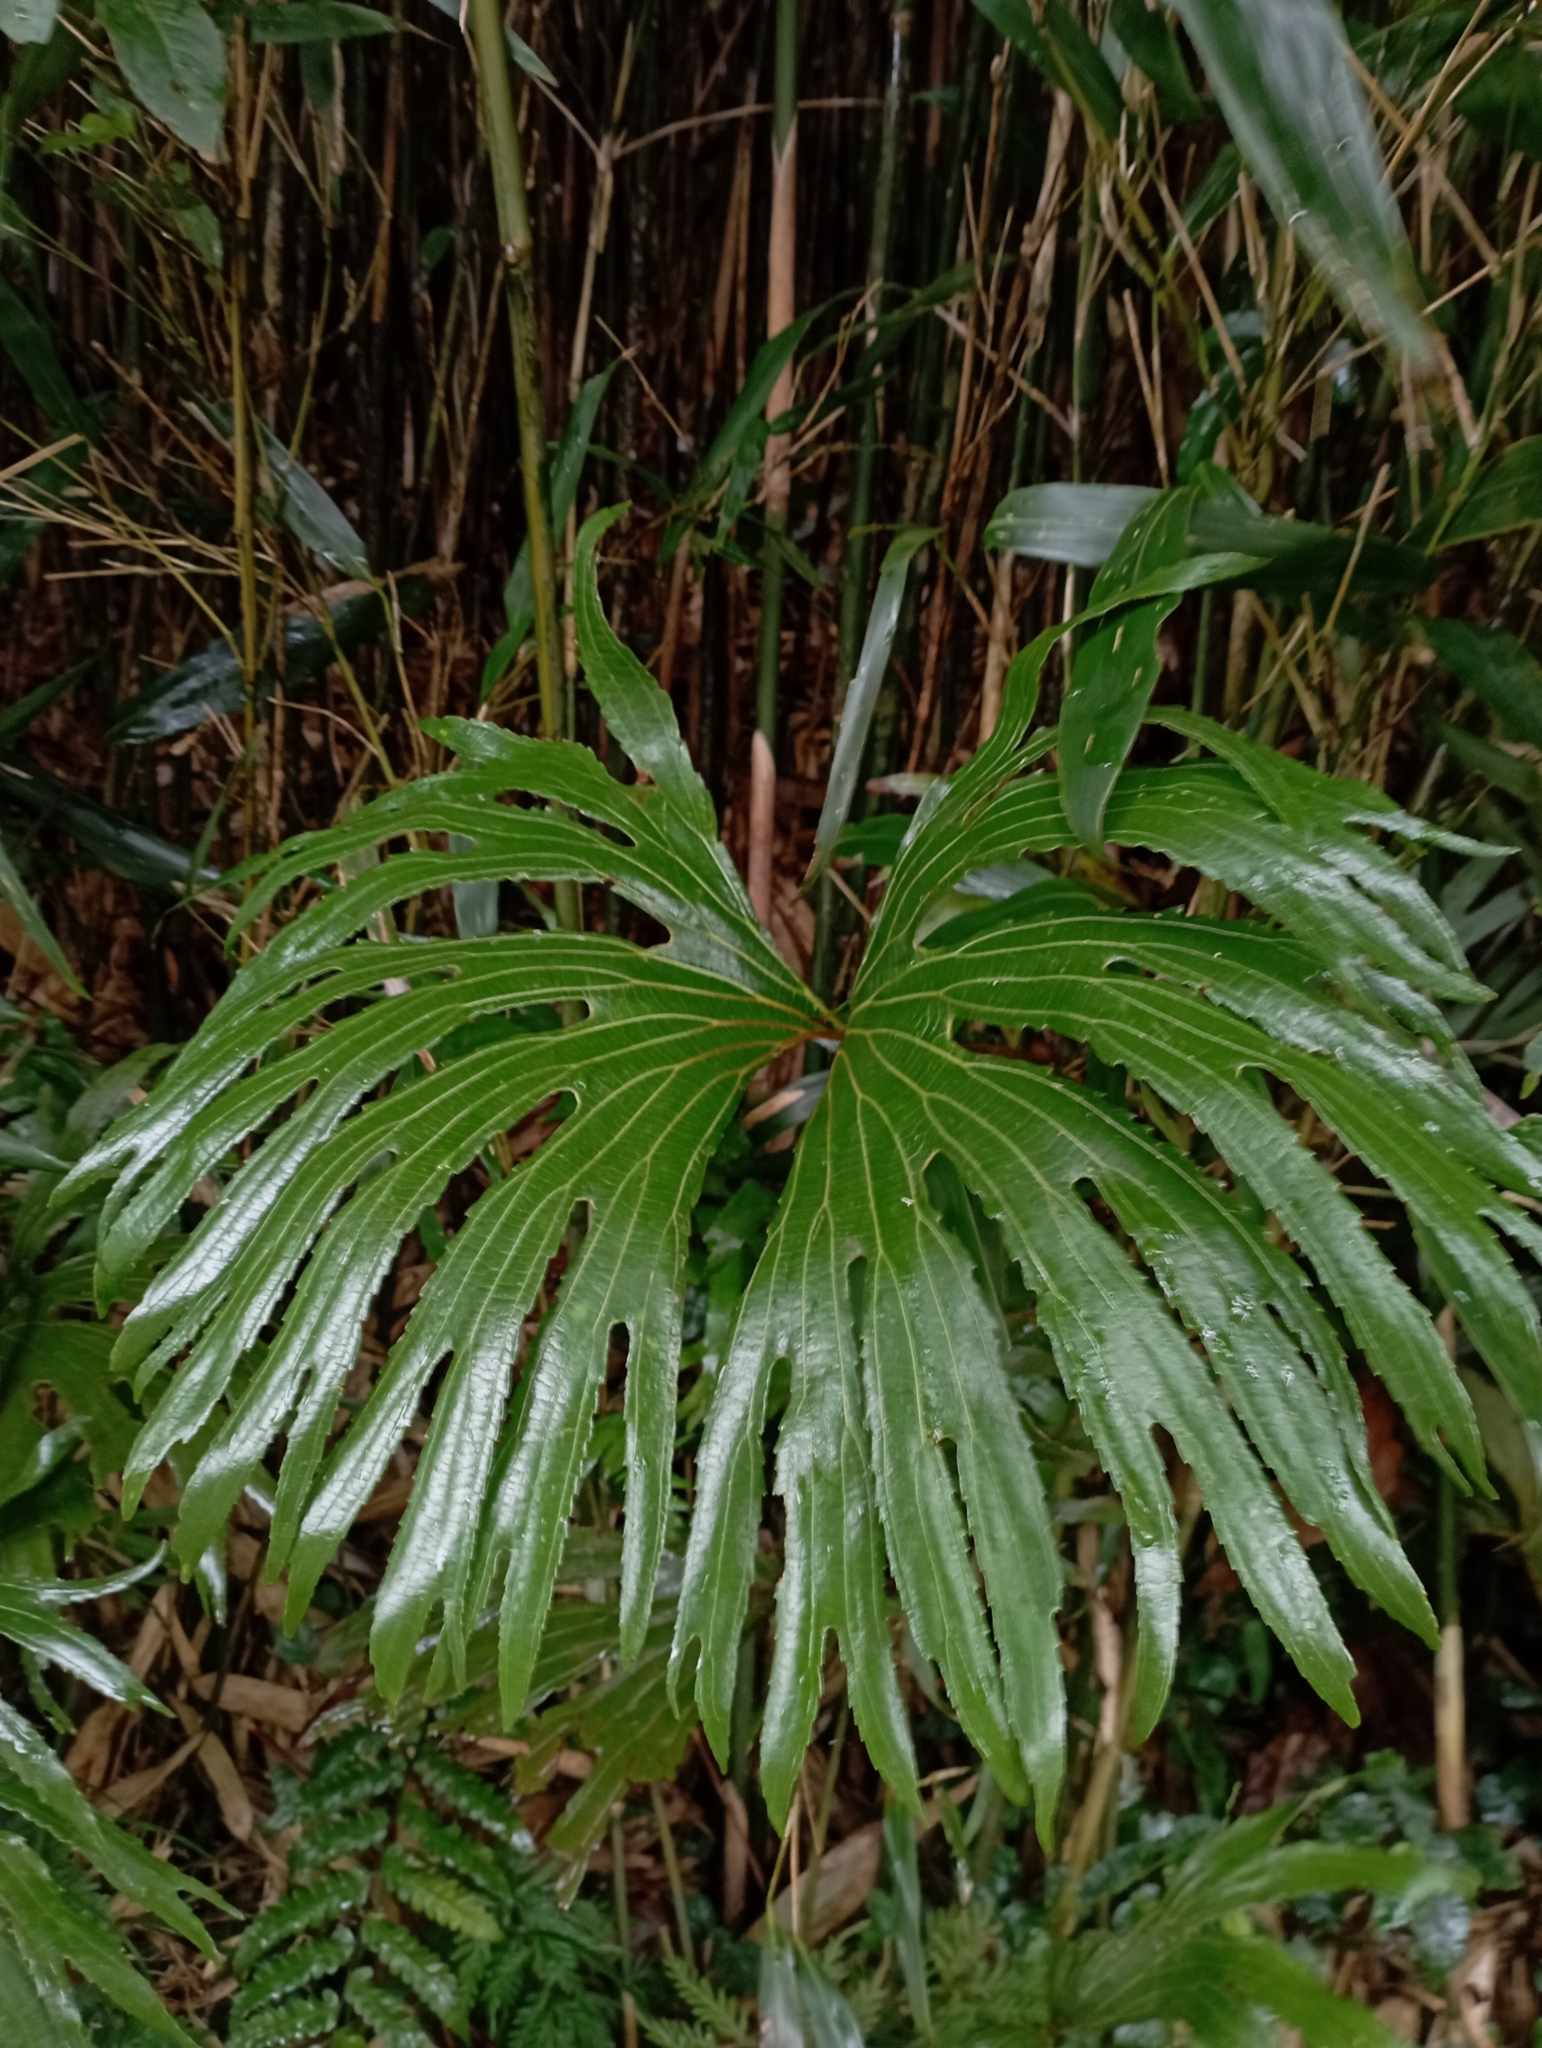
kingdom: Plantae
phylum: Tracheophyta
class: Polypodiopsida
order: Gleicheniales
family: Dipteridaceae
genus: Dipteris
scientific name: Dipteris conjugata
